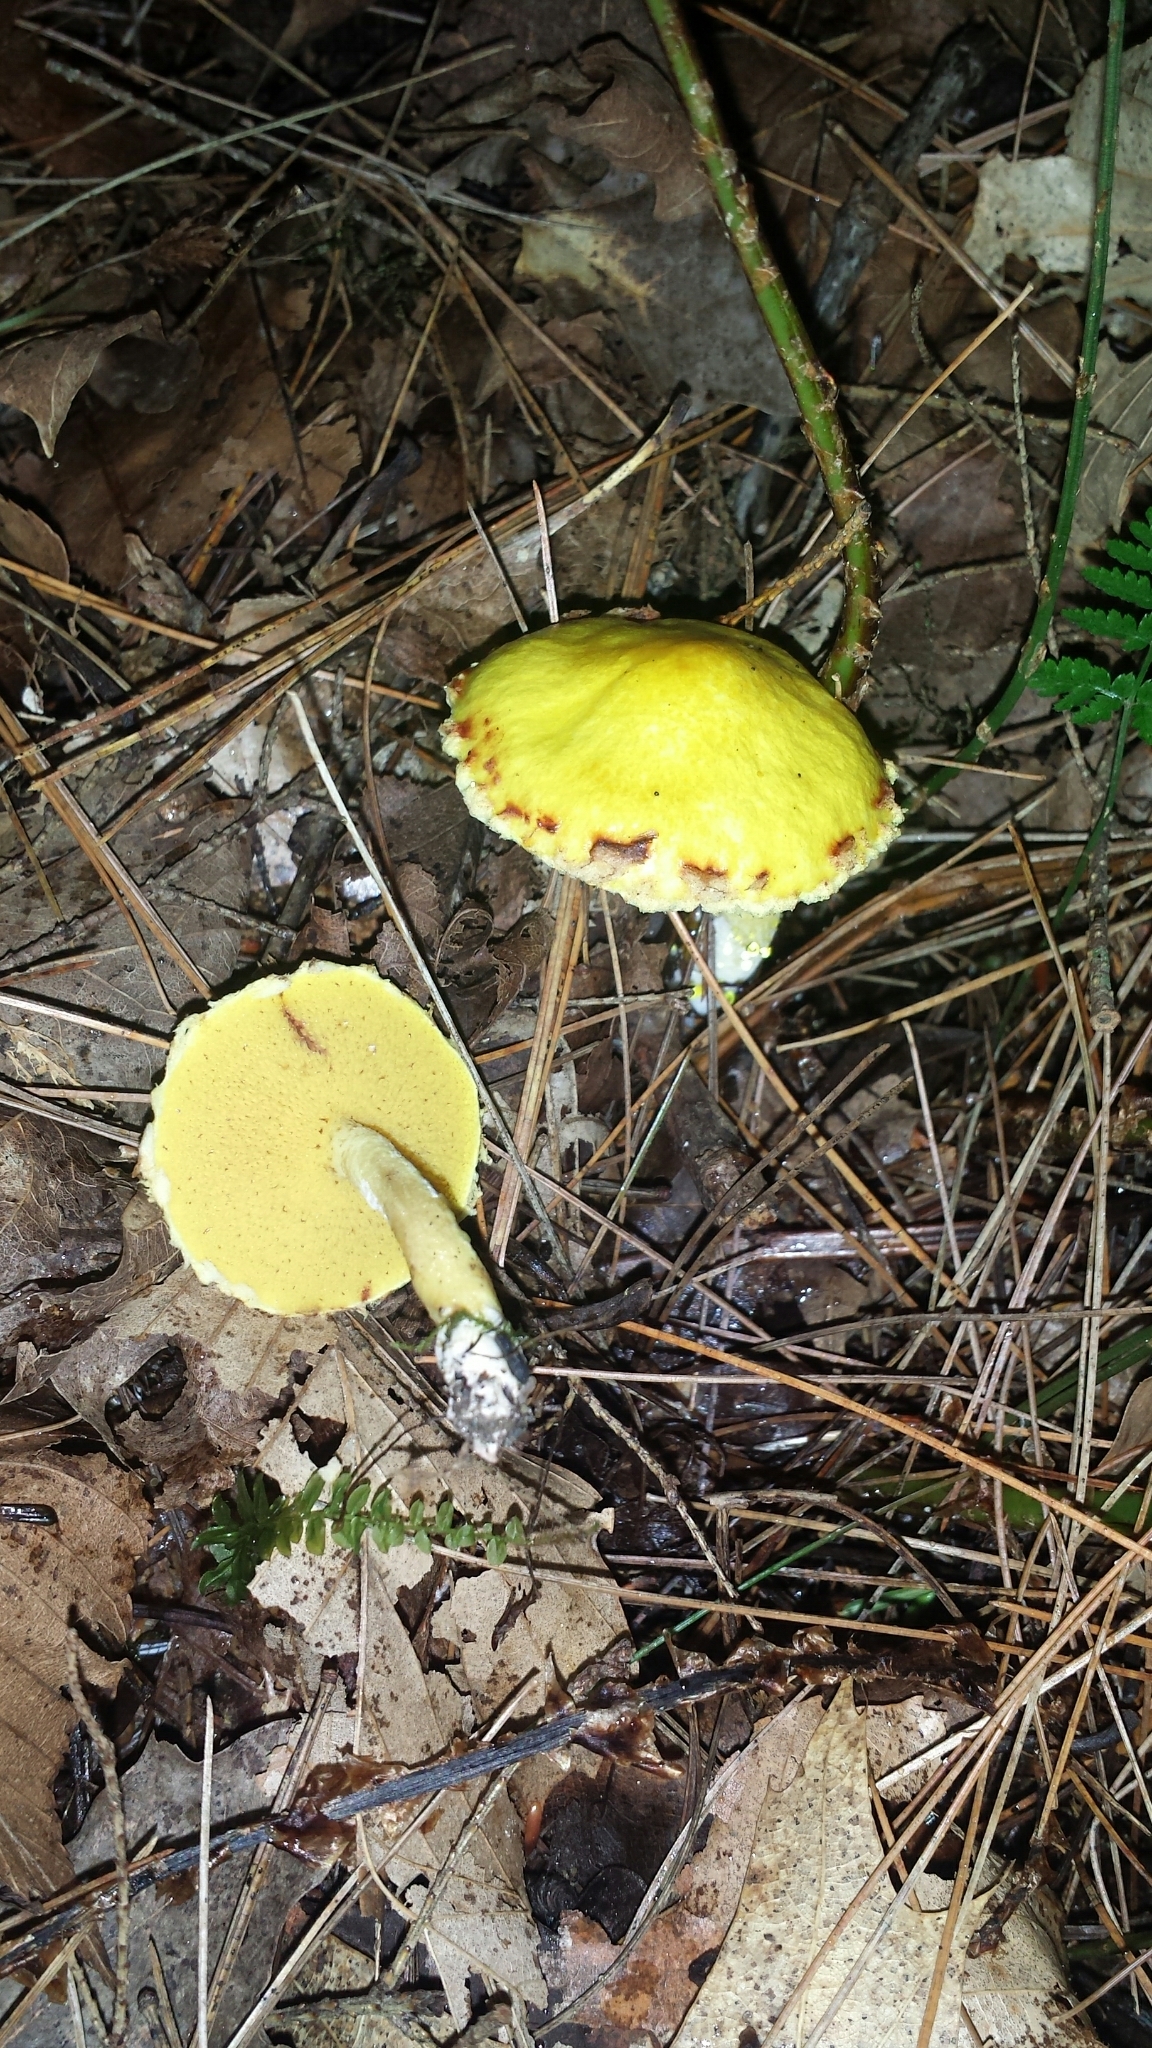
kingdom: Fungi
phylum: Basidiomycota
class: Agaricomycetes
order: Boletales
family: Suillaceae
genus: Suillus
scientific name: Suillus americanus
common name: Chicken fat mushroom
